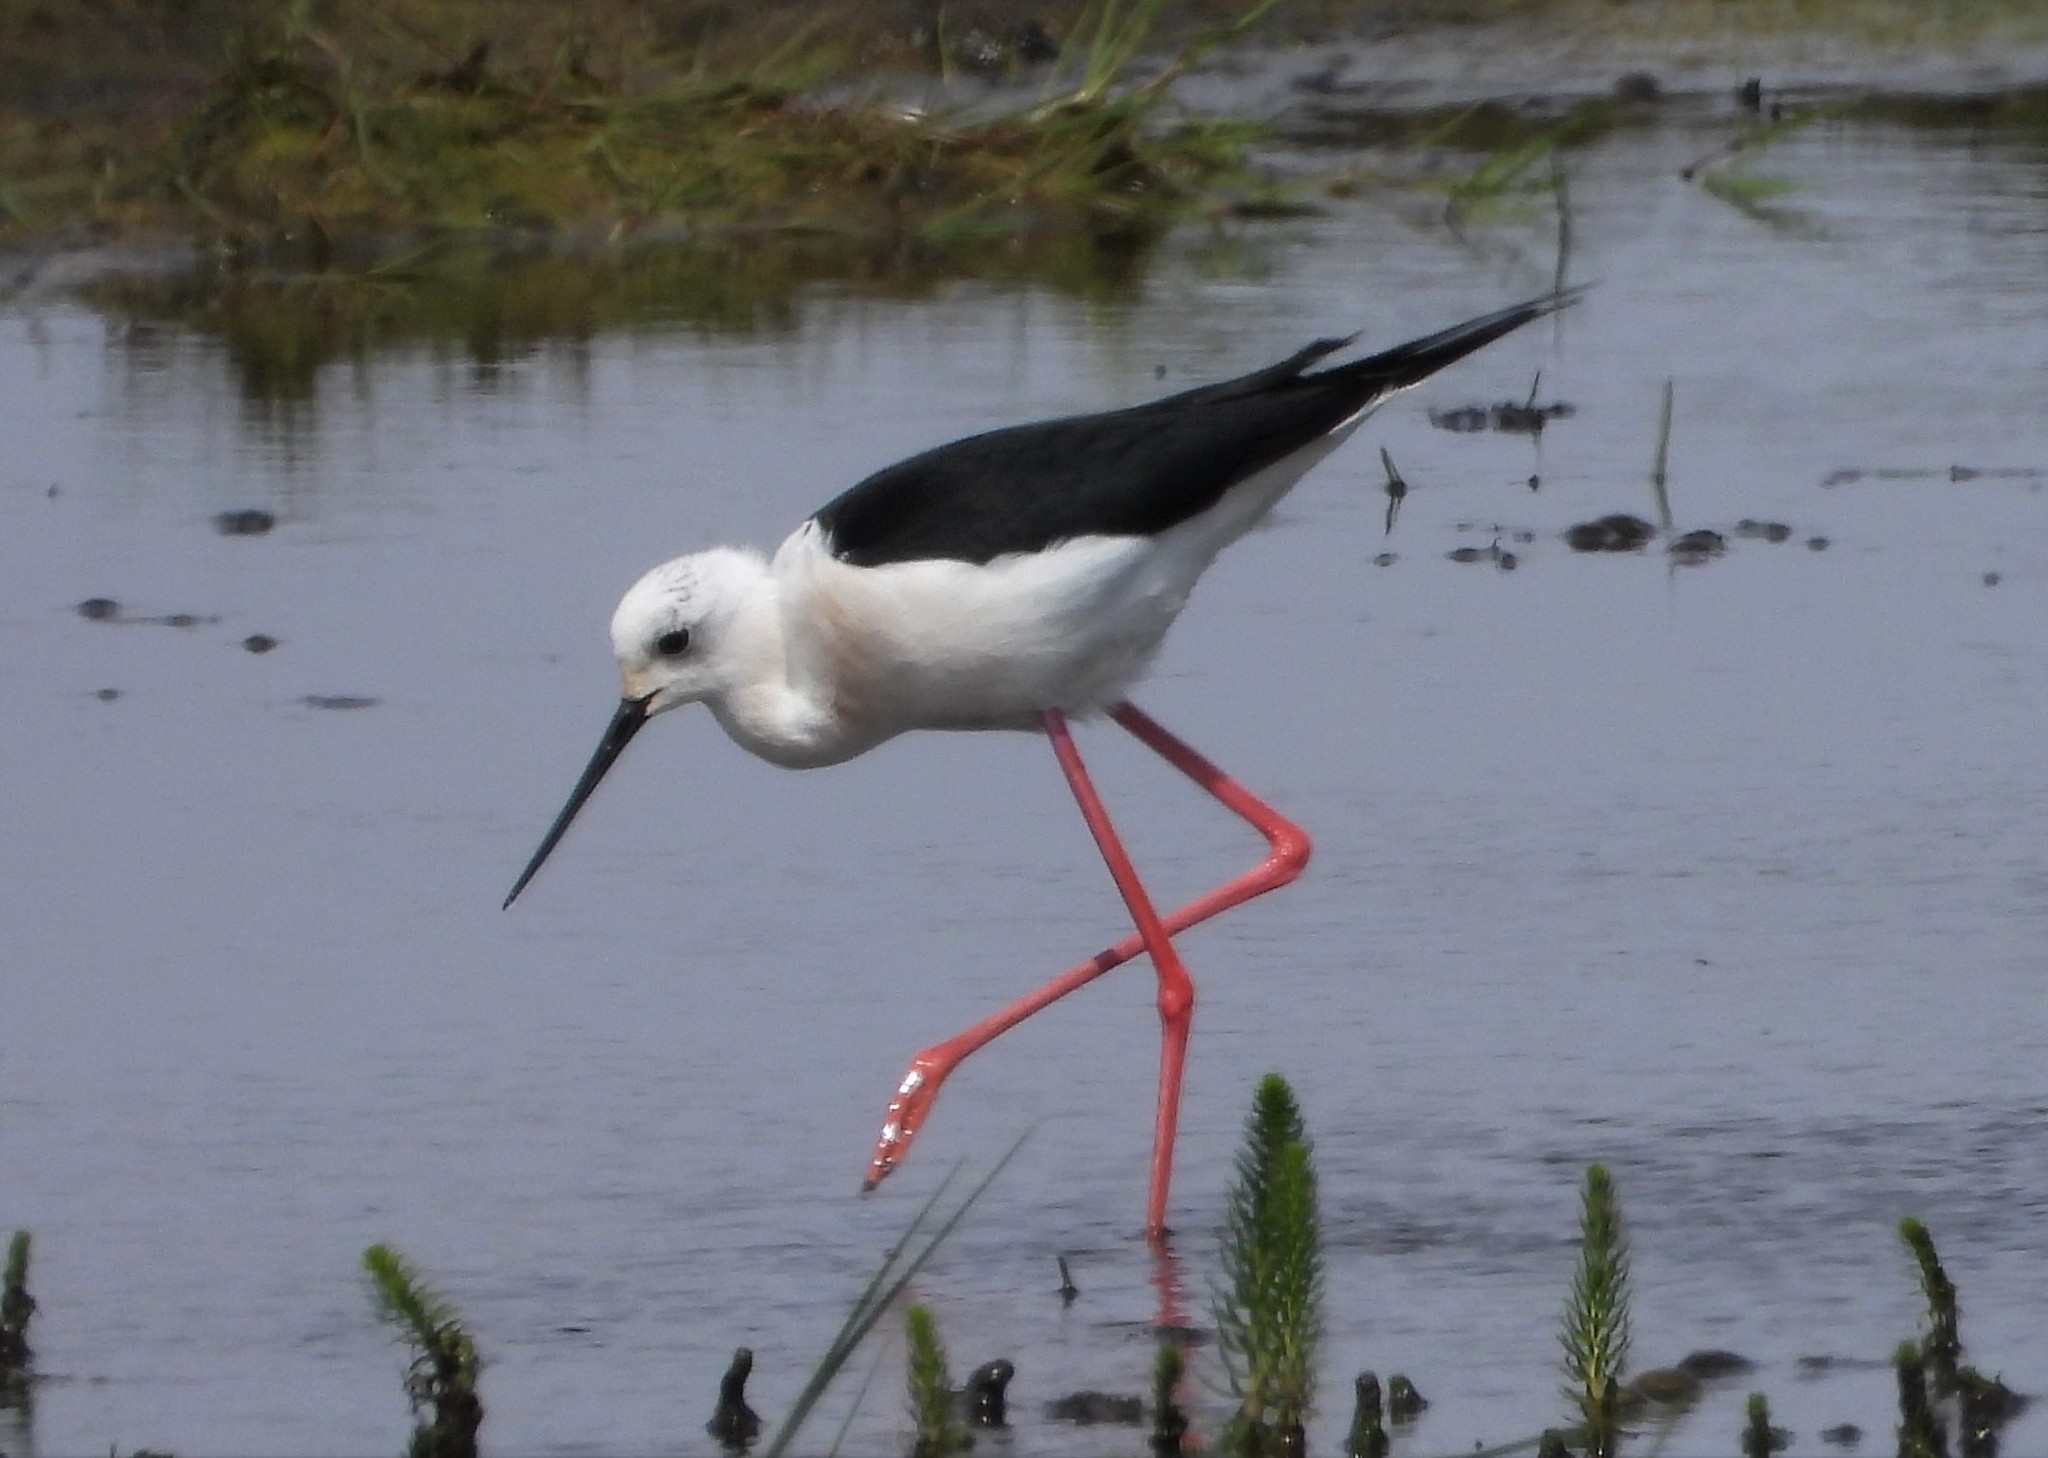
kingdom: Animalia
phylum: Chordata
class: Aves
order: Charadriiformes
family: Recurvirostridae
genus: Himantopus
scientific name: Himantopus himantopus
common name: Black-winged stilt
